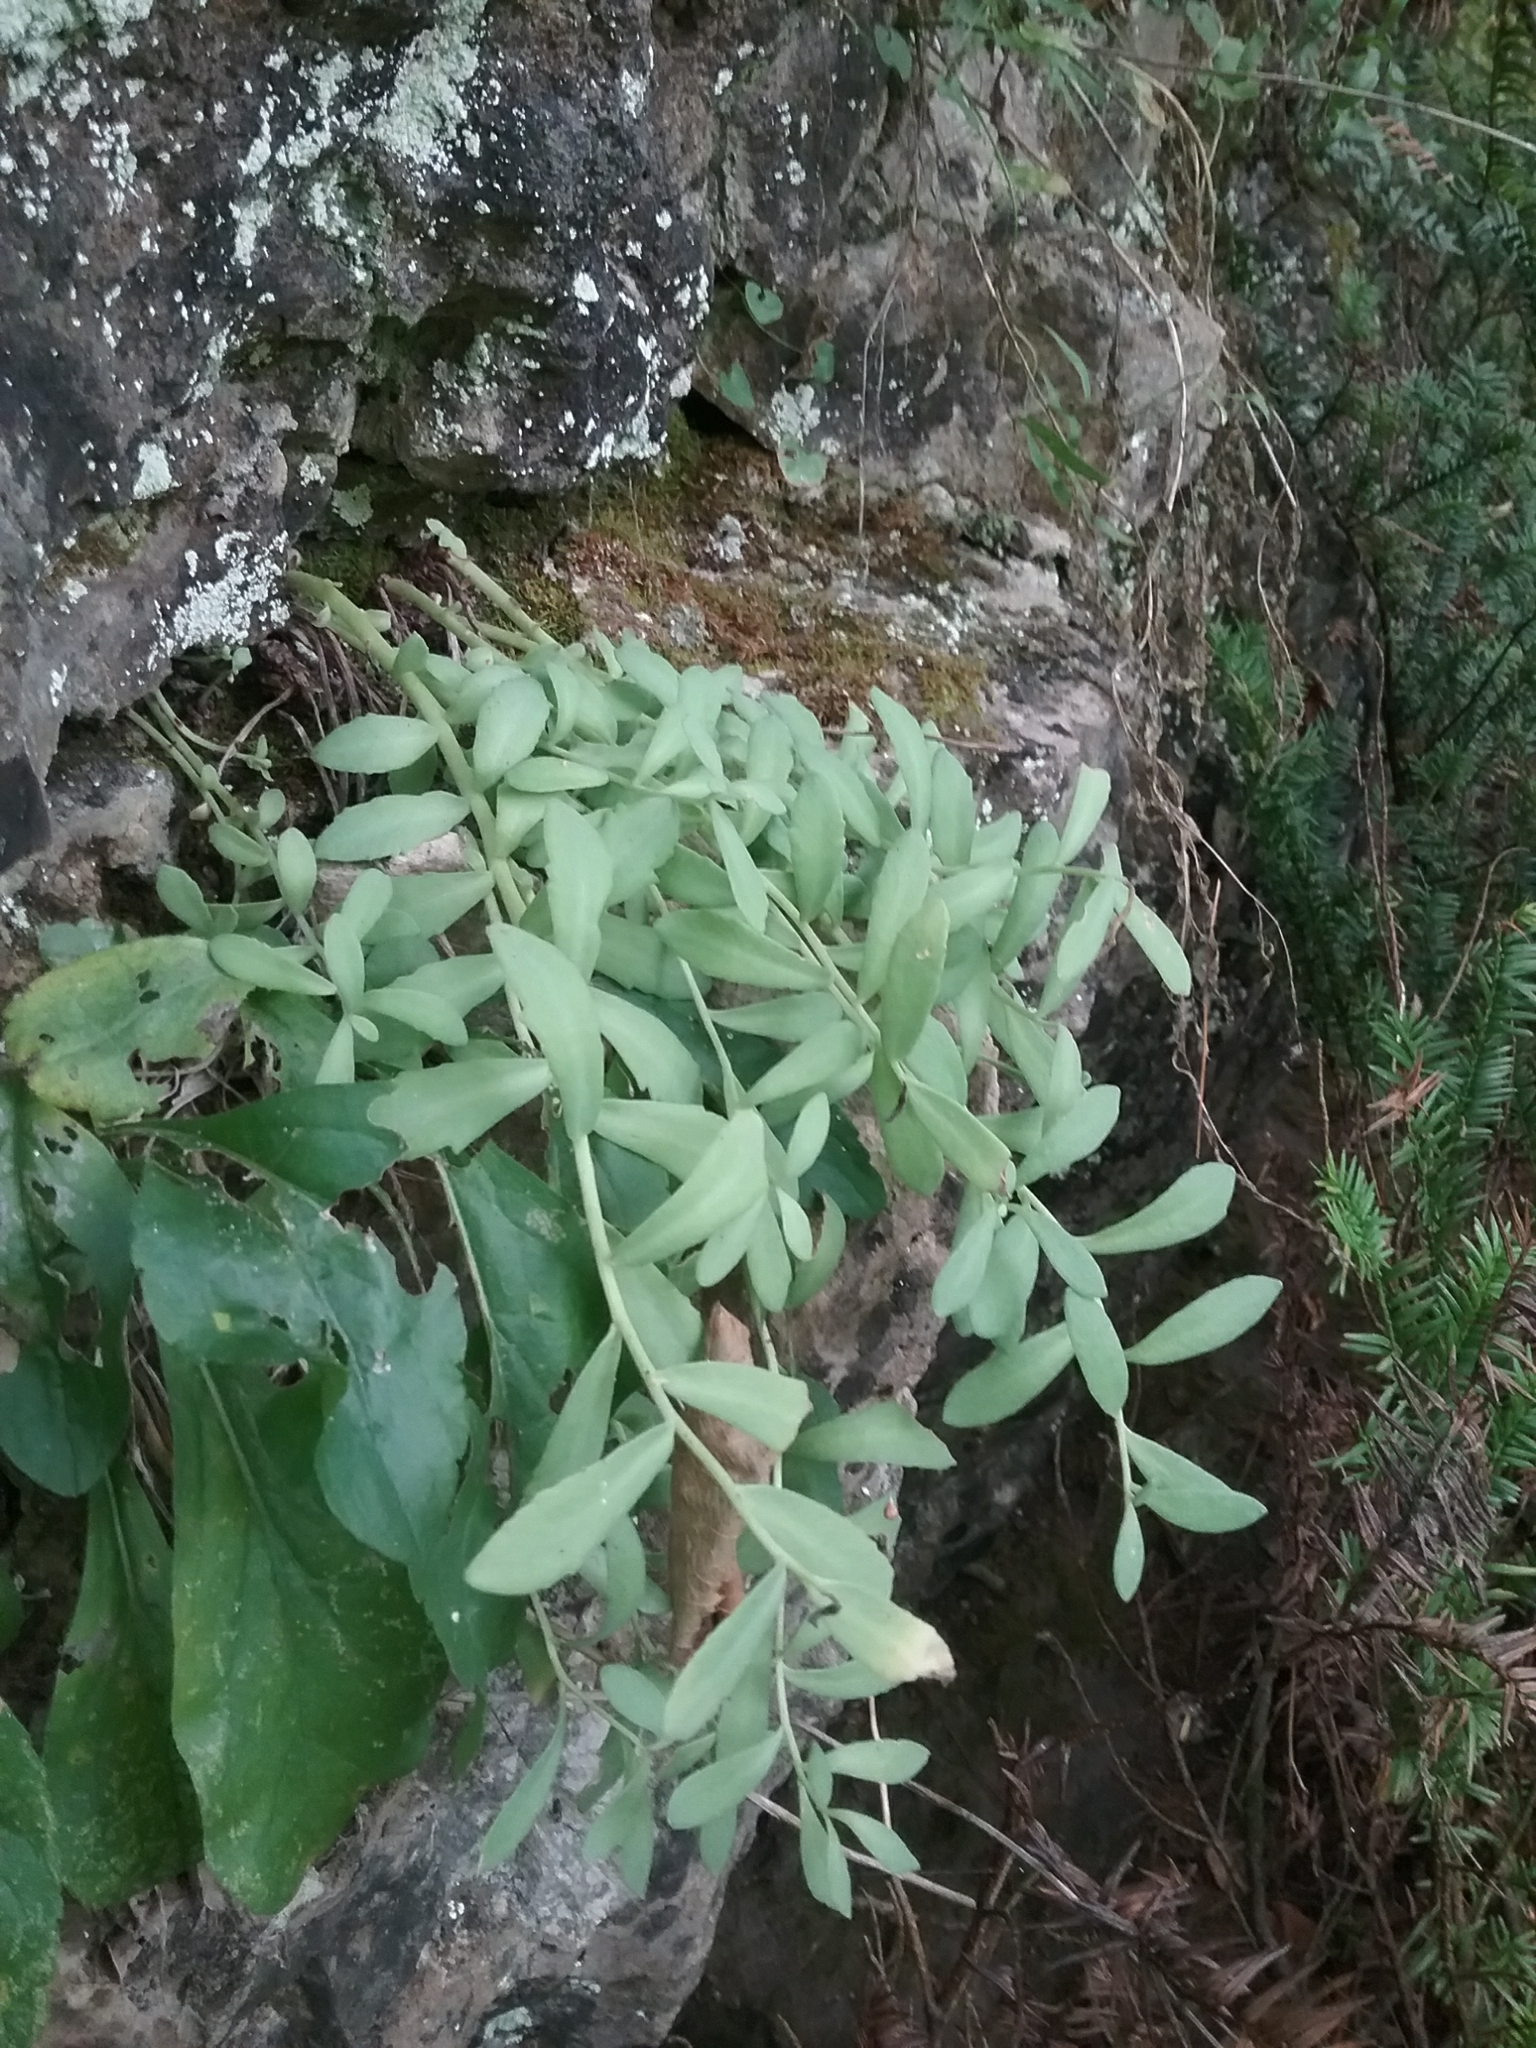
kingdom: Plantae
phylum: Tracheophyta
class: Magnoliopsida
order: Saxifragales
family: Crassulaceae
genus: Rhodiola
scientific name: Rhodiola integrifolia
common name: Western roseroot
